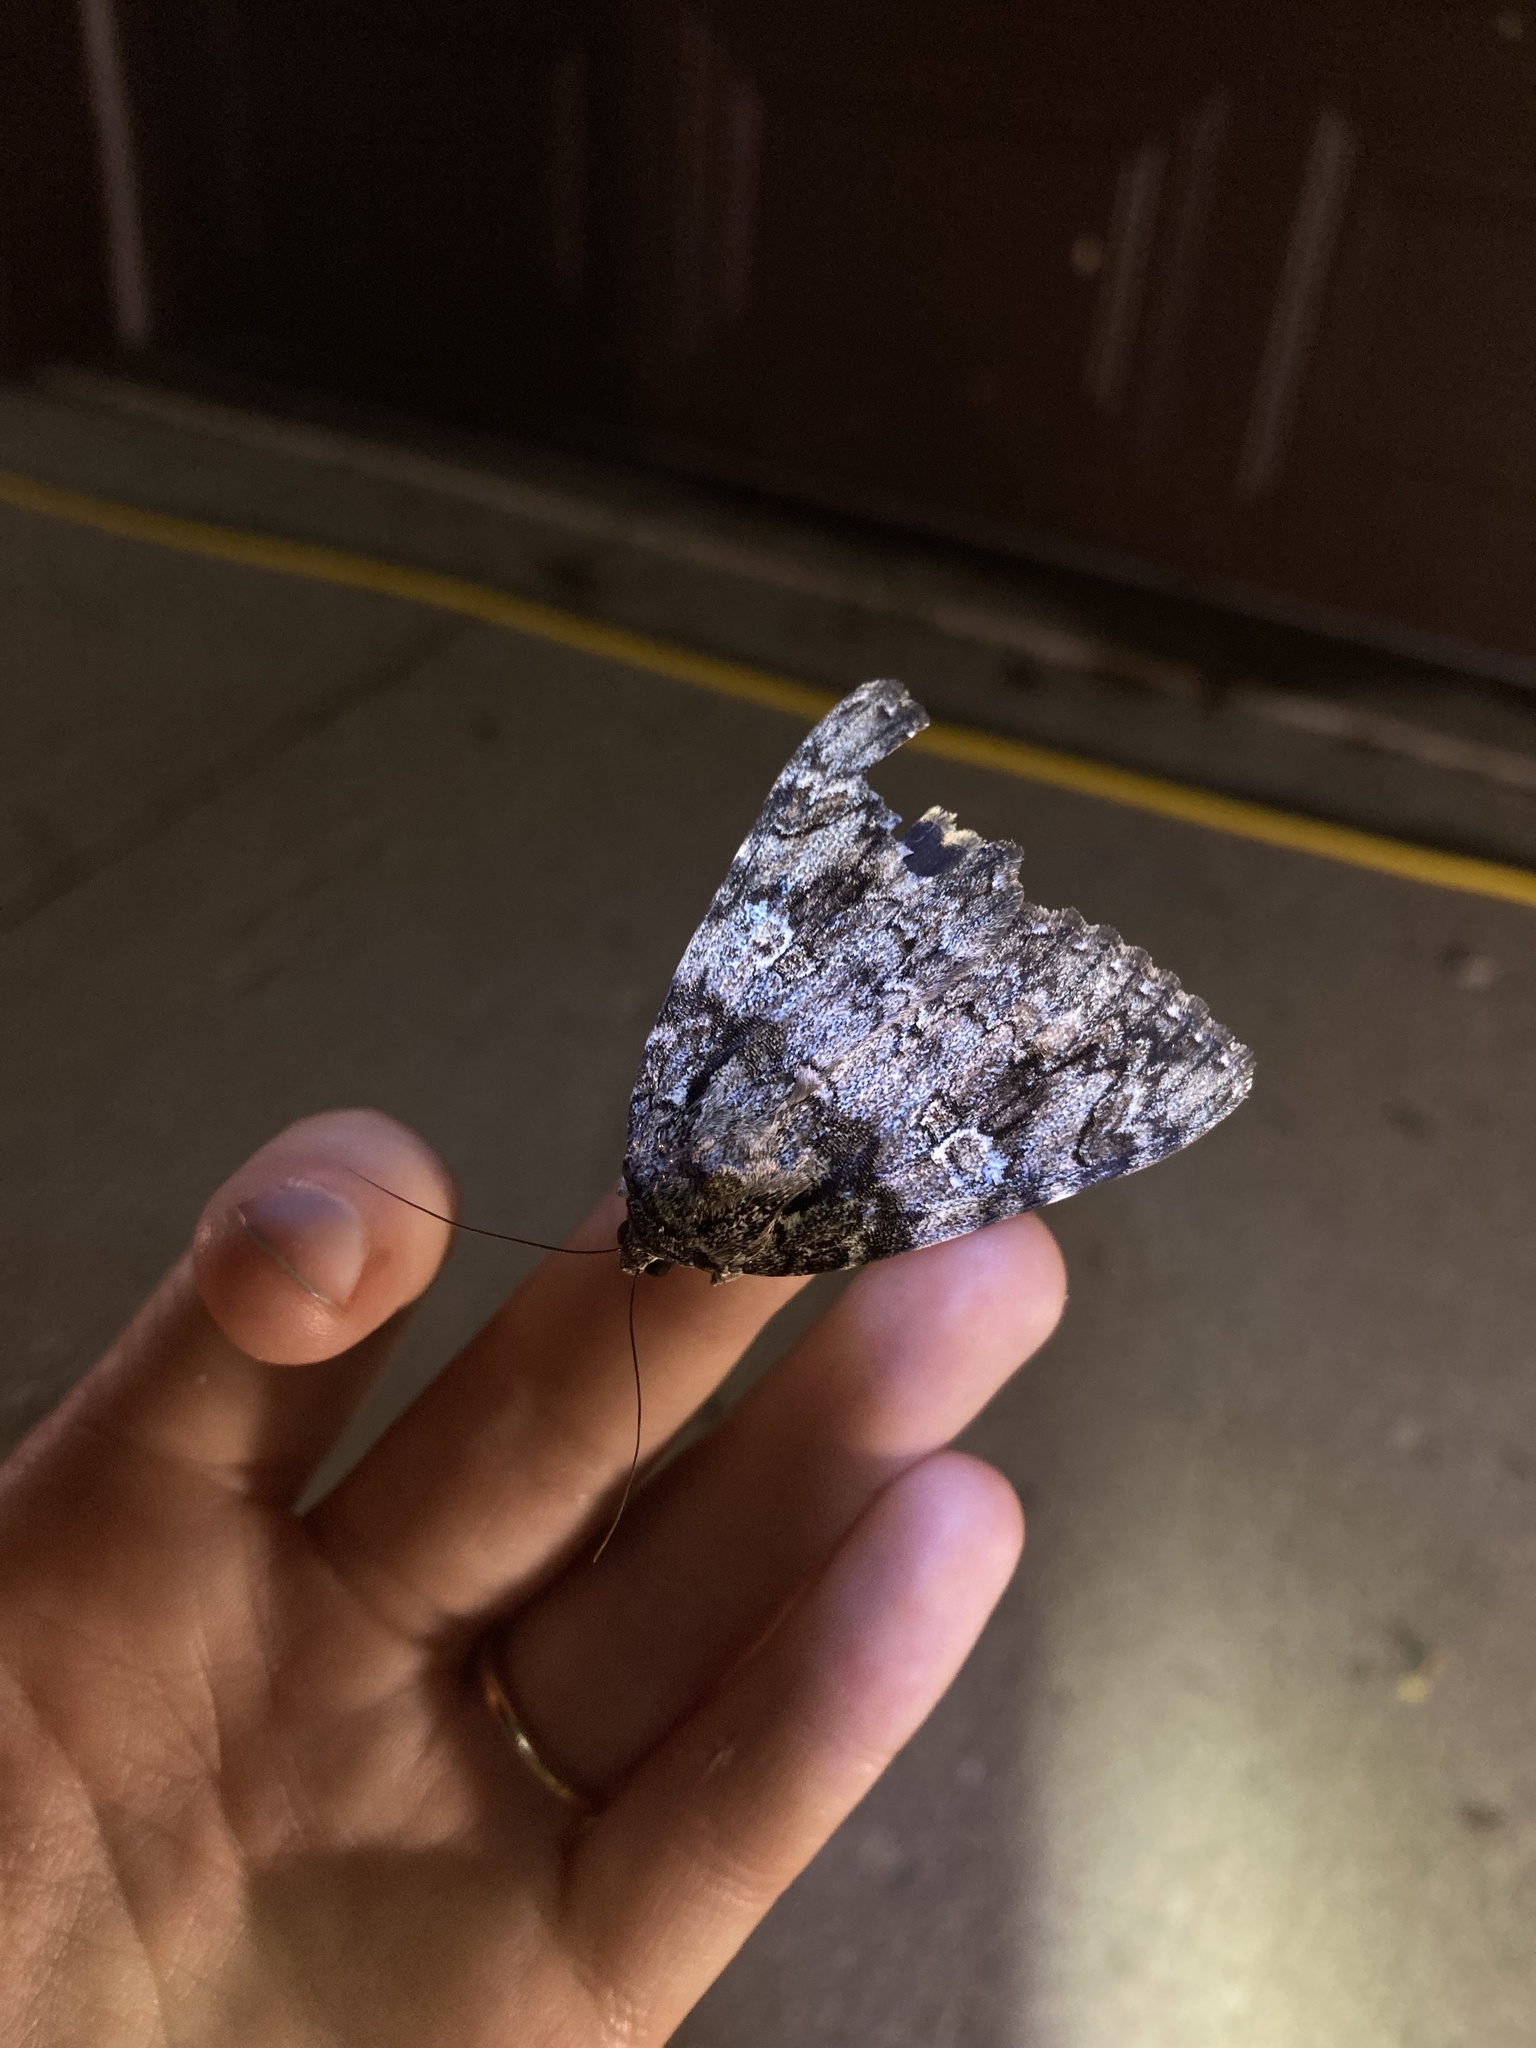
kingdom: Animalia
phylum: Arthropoda
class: Insecta
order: Lepidoptera
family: Erebidae
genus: Catocala
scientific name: Catocala ilia
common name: Ilia underwing
